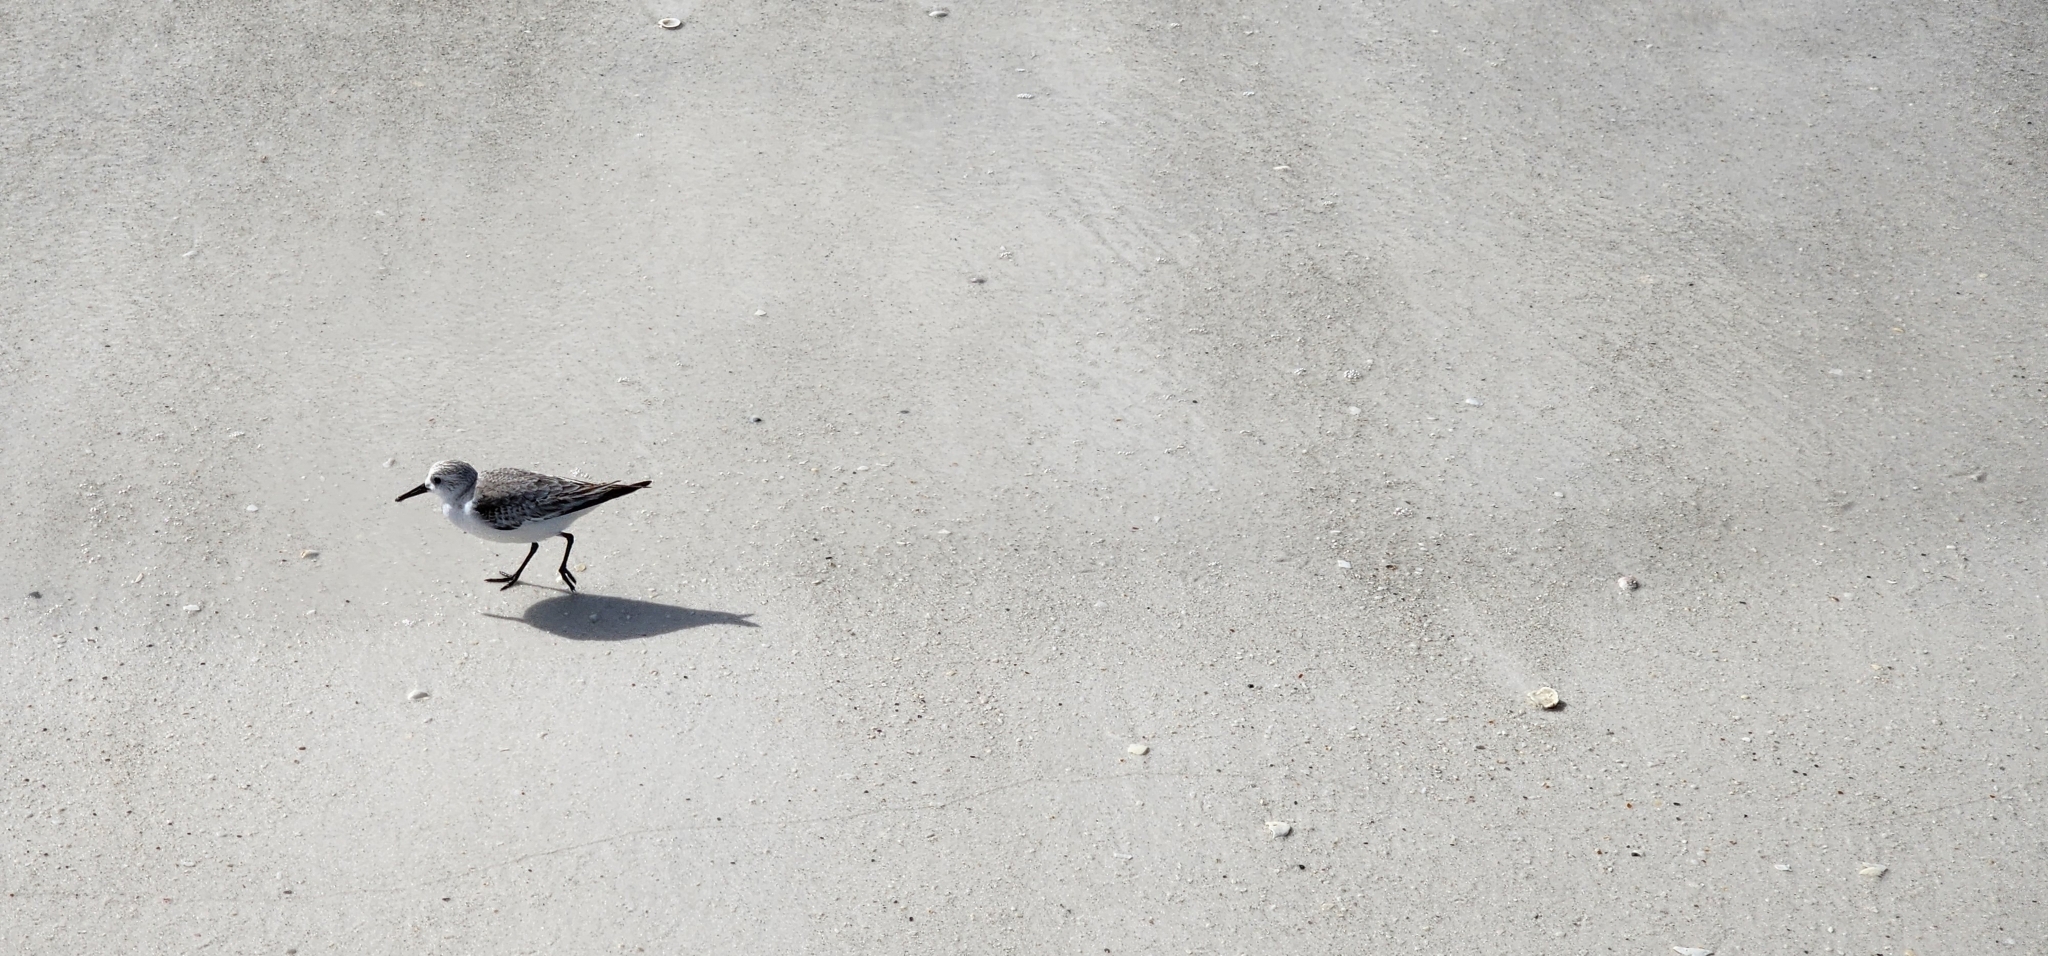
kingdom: Animalia
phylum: Chordata
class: Aves
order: Charadriiformes
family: Scolopacidae
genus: Calidris
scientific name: Calidris alba
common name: Sanderling
